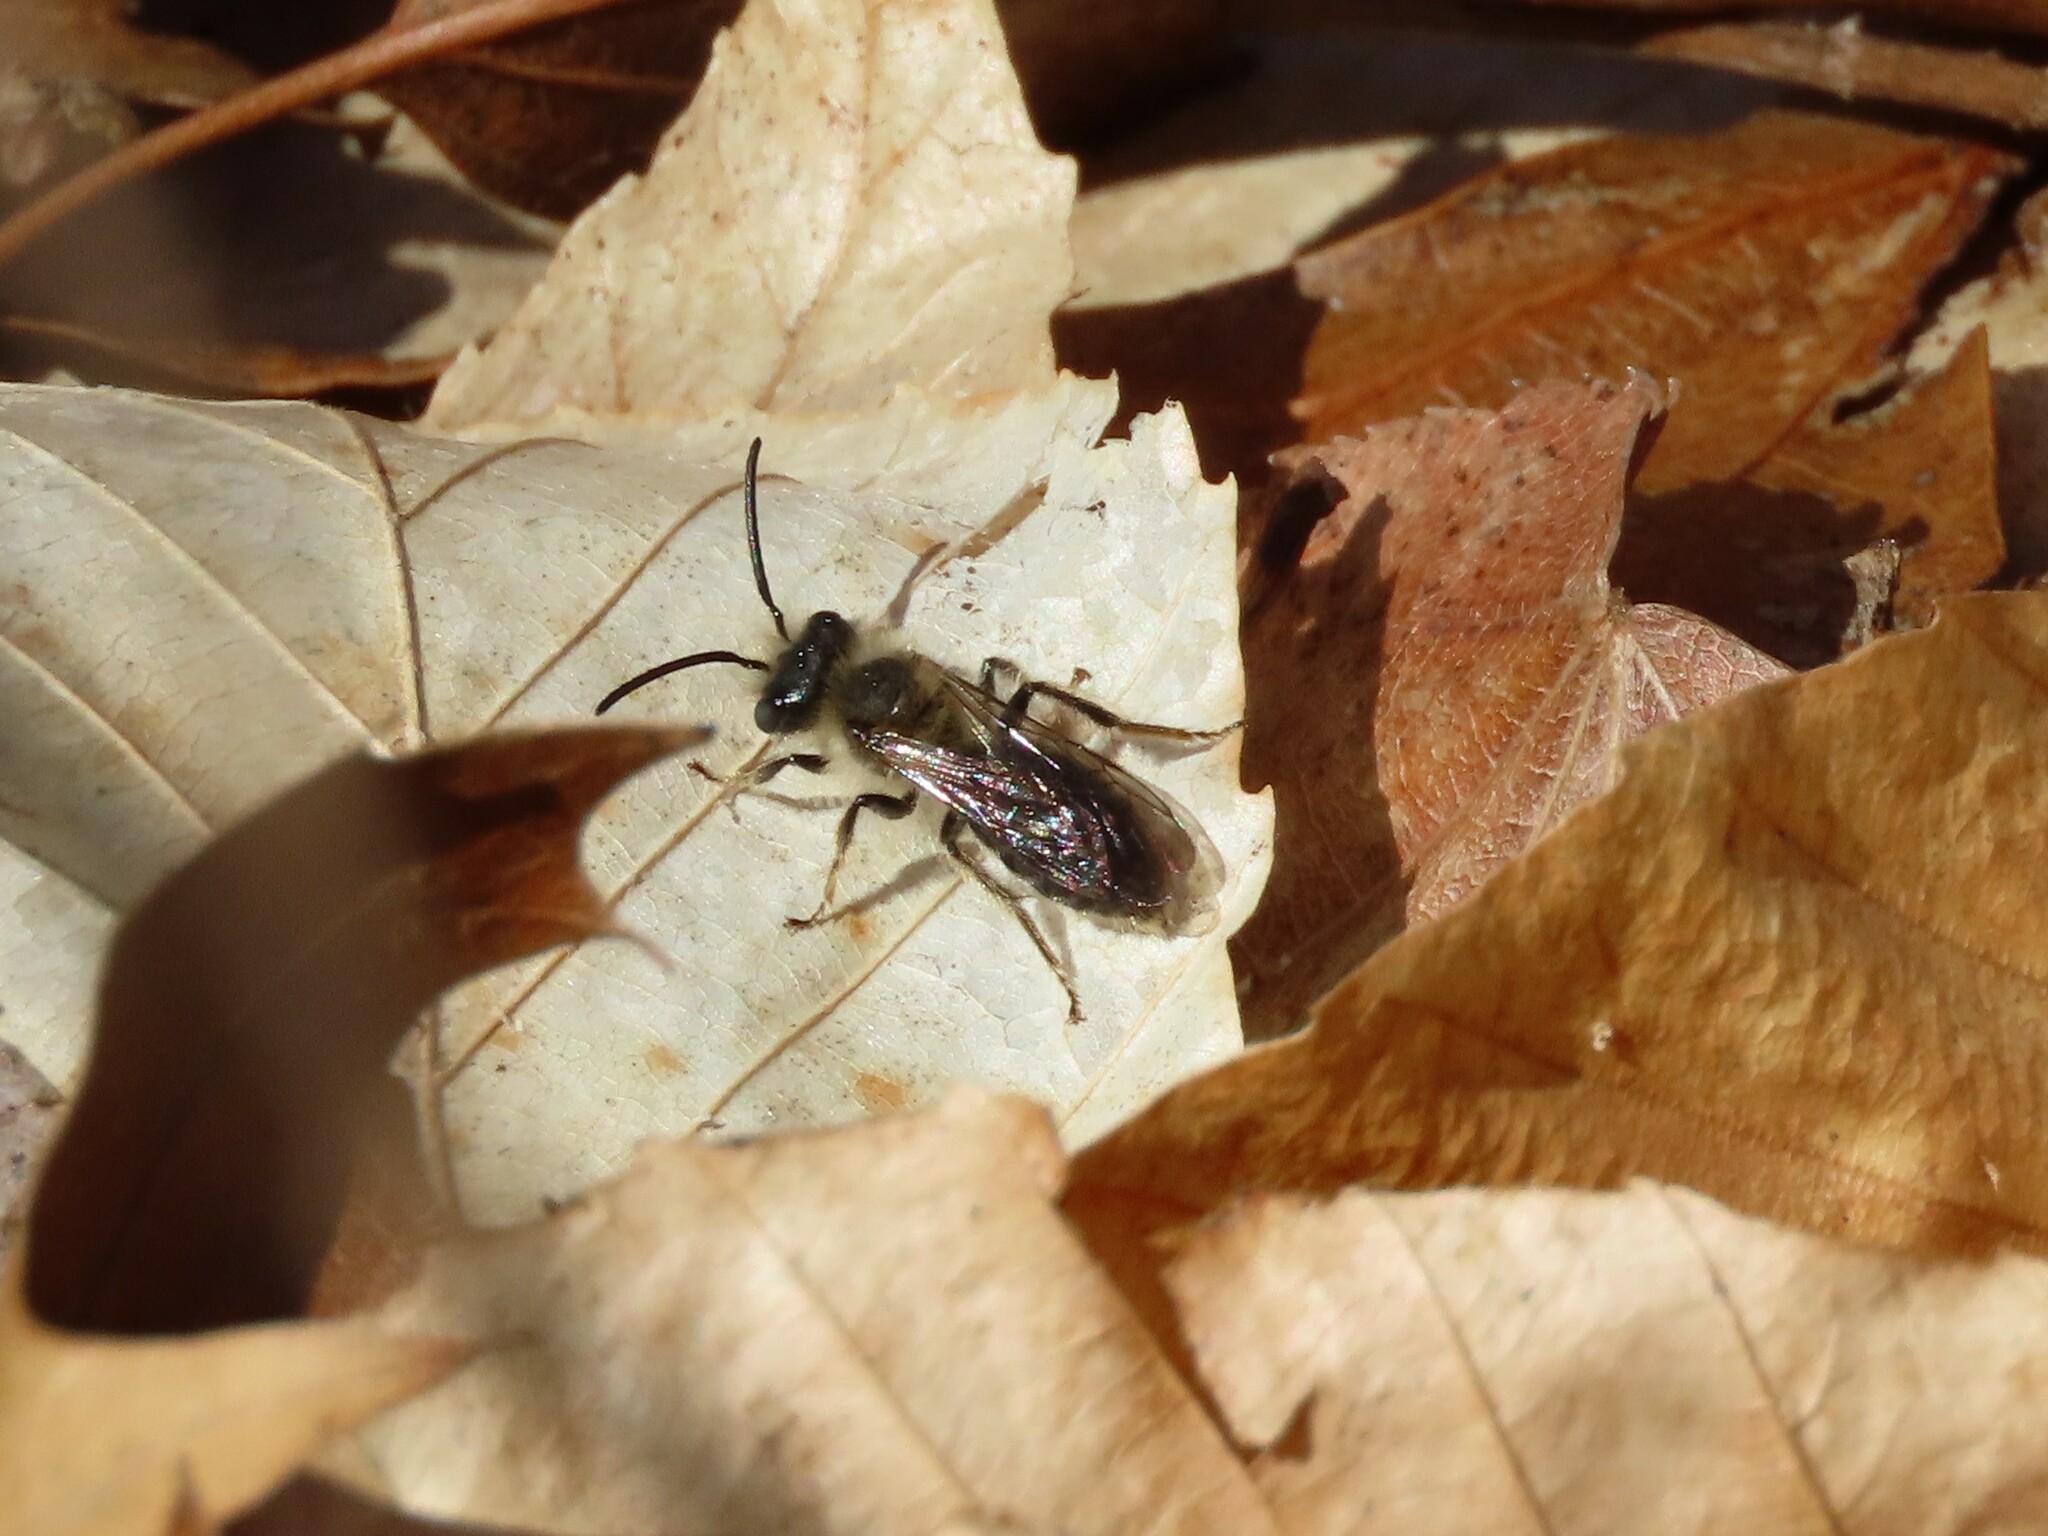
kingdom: Animalia
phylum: Arthropoda
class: Insecta
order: Hymenoptera
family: Andrenidae
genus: Andrena
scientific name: Andrena carlini
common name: Carlin's mining bee
